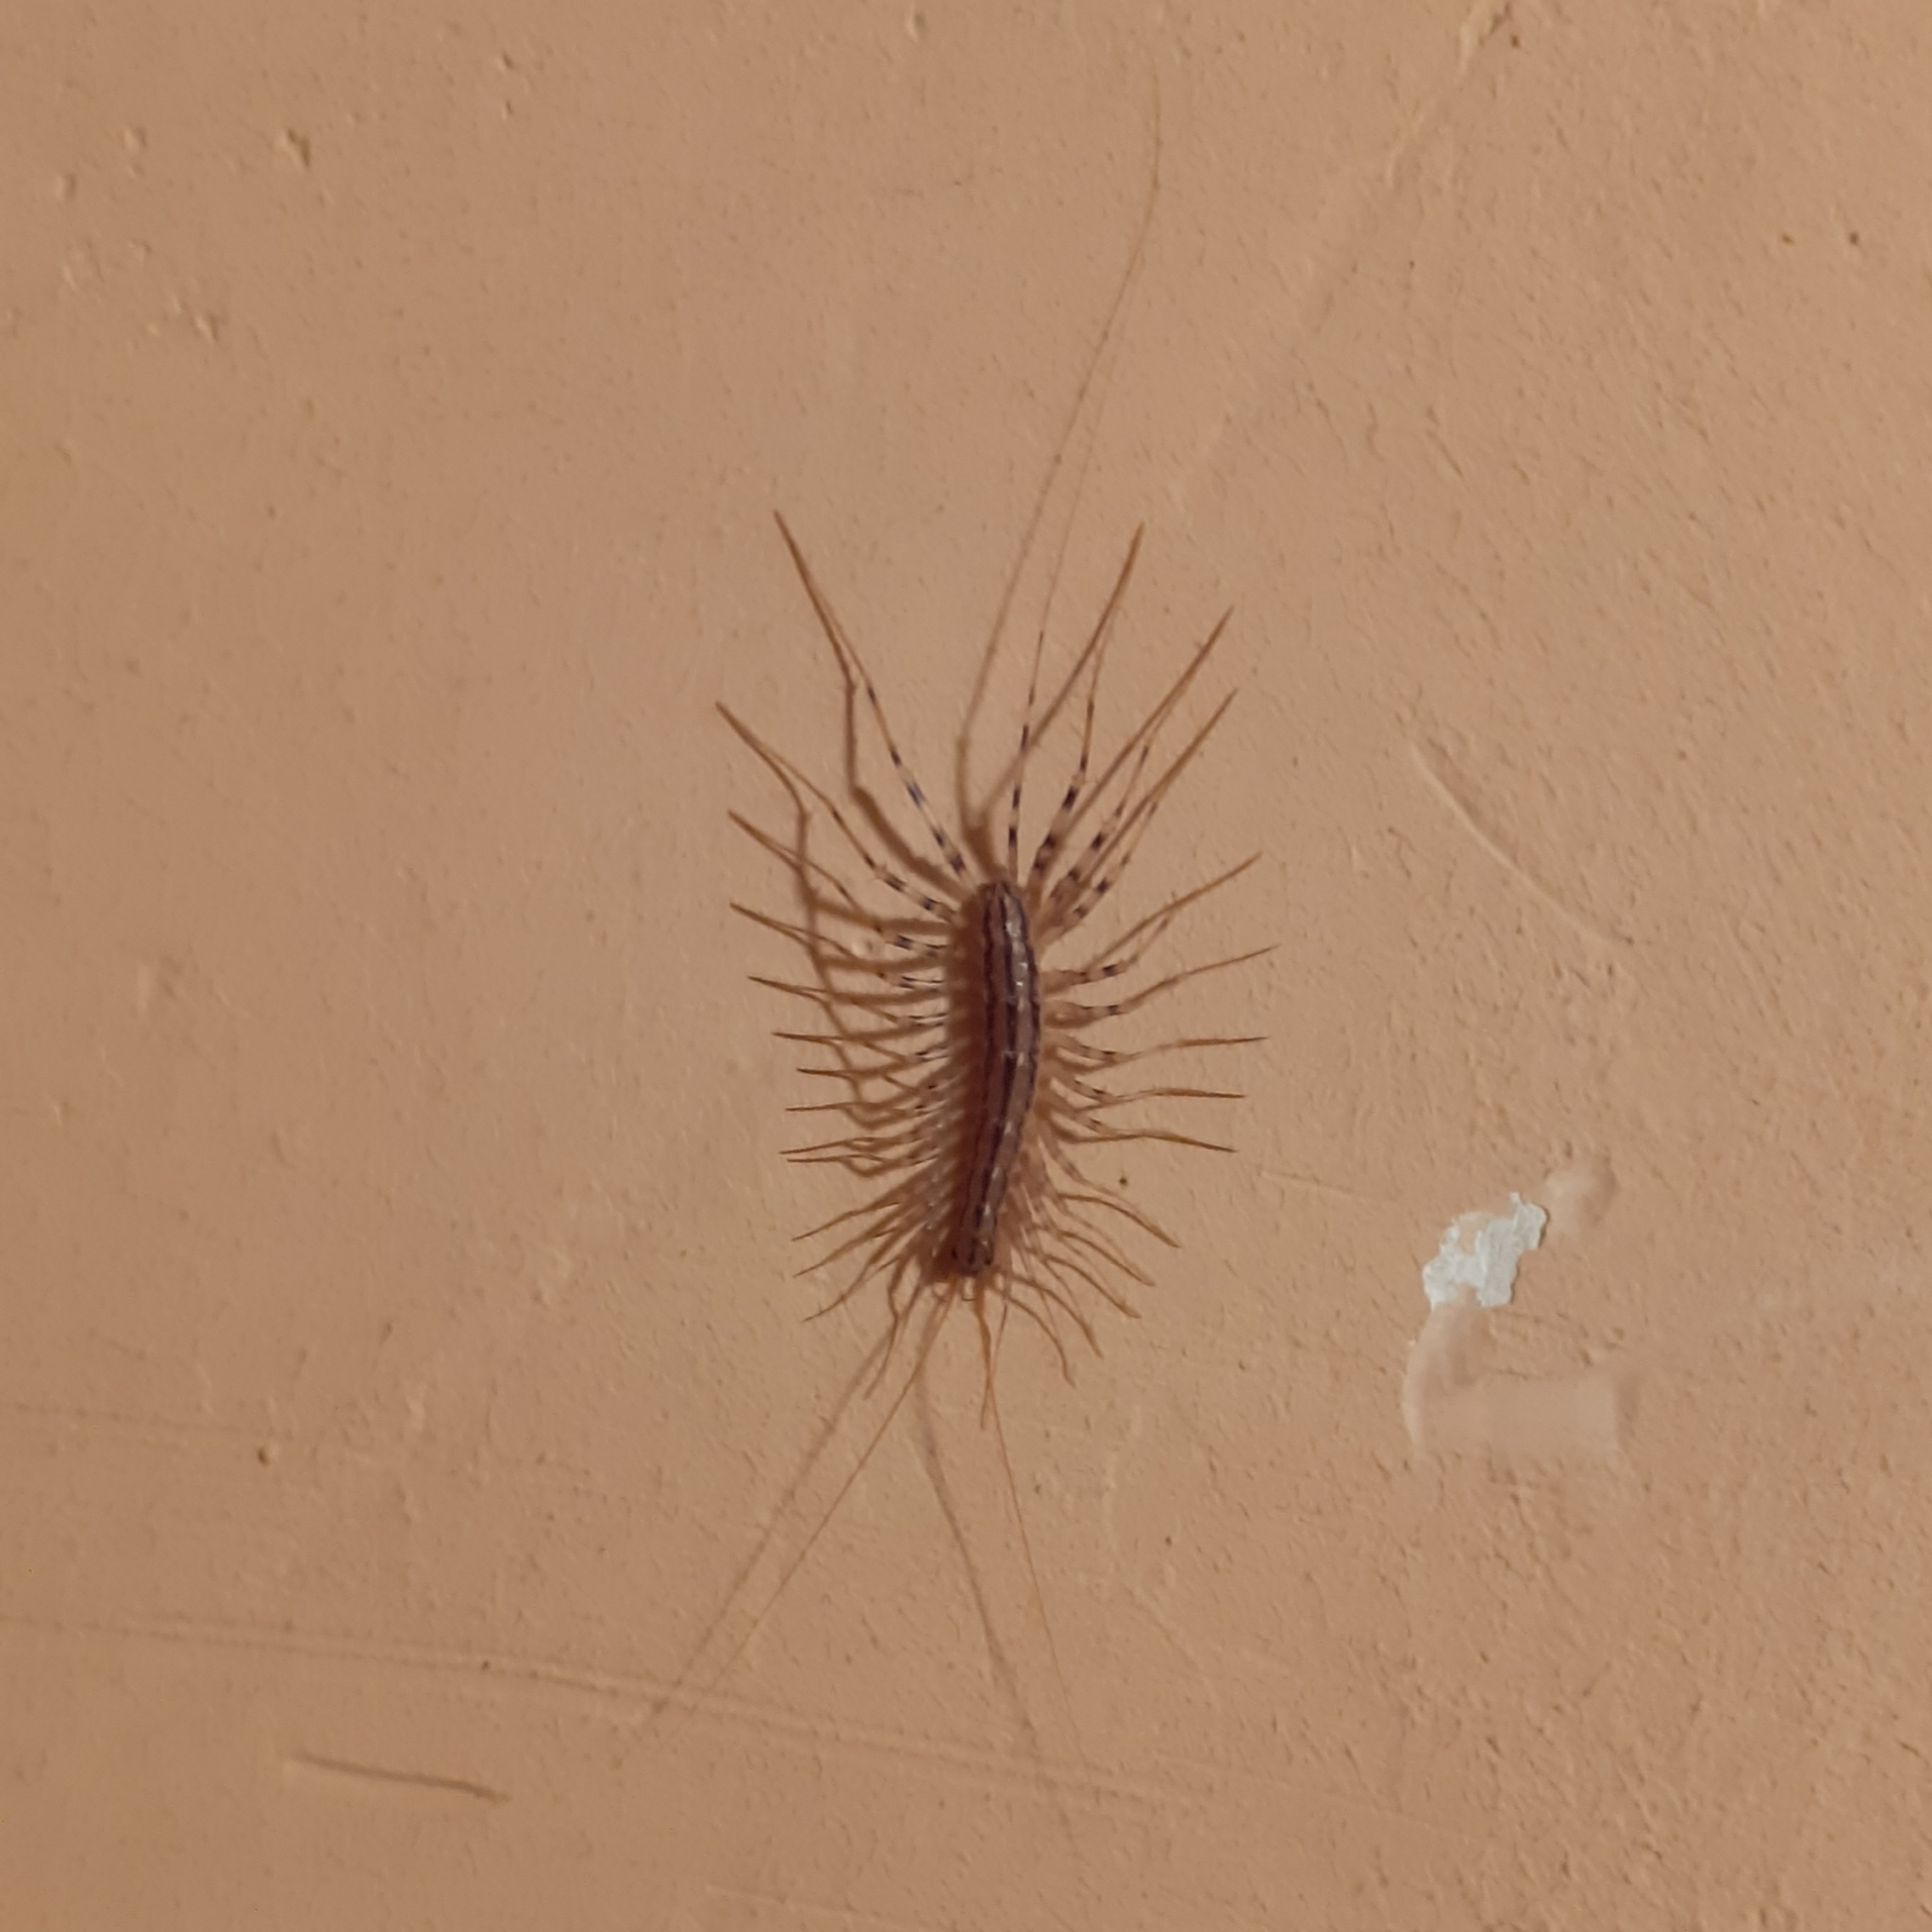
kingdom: Animalia
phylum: Arthropoda
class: Chilopoda
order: Scutigeromorpha
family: Scutigeridae
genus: Scutigera
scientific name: Scutigera coleoptrata
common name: House centipede
